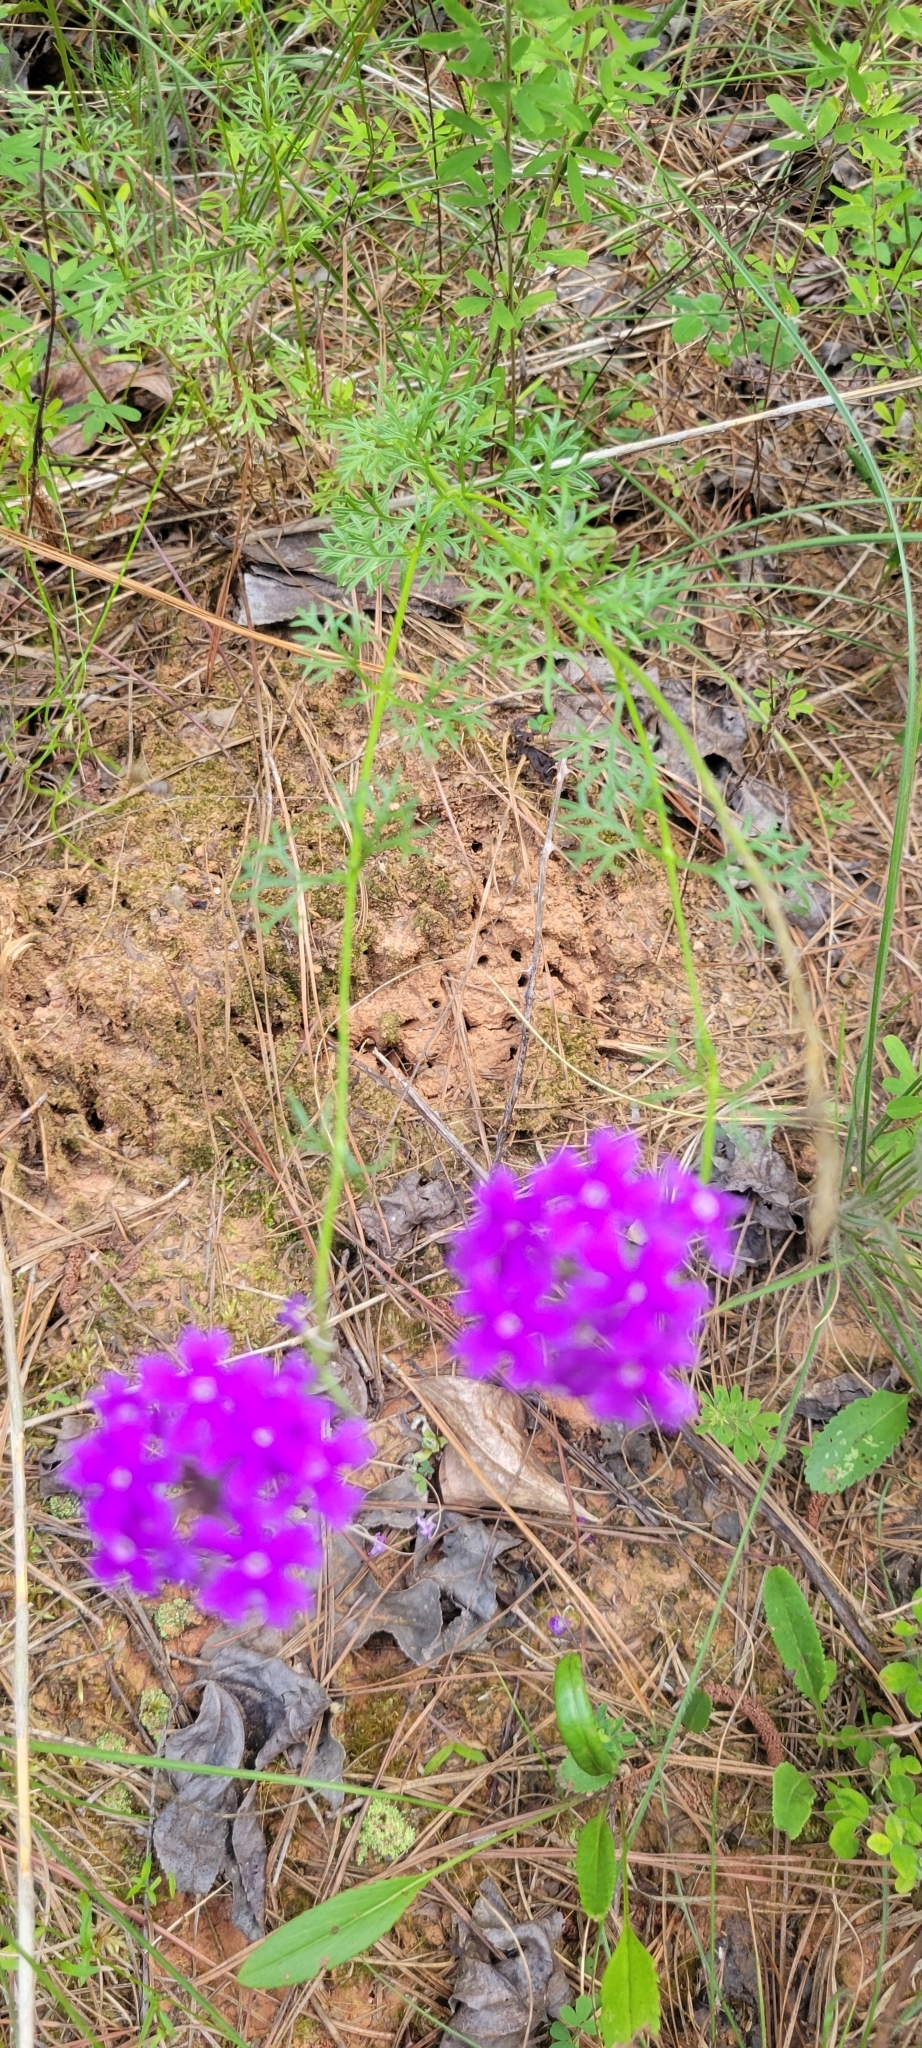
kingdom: Plantae
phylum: Tracheophyta
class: Magnoliopsida
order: Lamiales
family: Verbenaceae
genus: Verbena
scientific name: Verbena rigida
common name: Slender vervain
